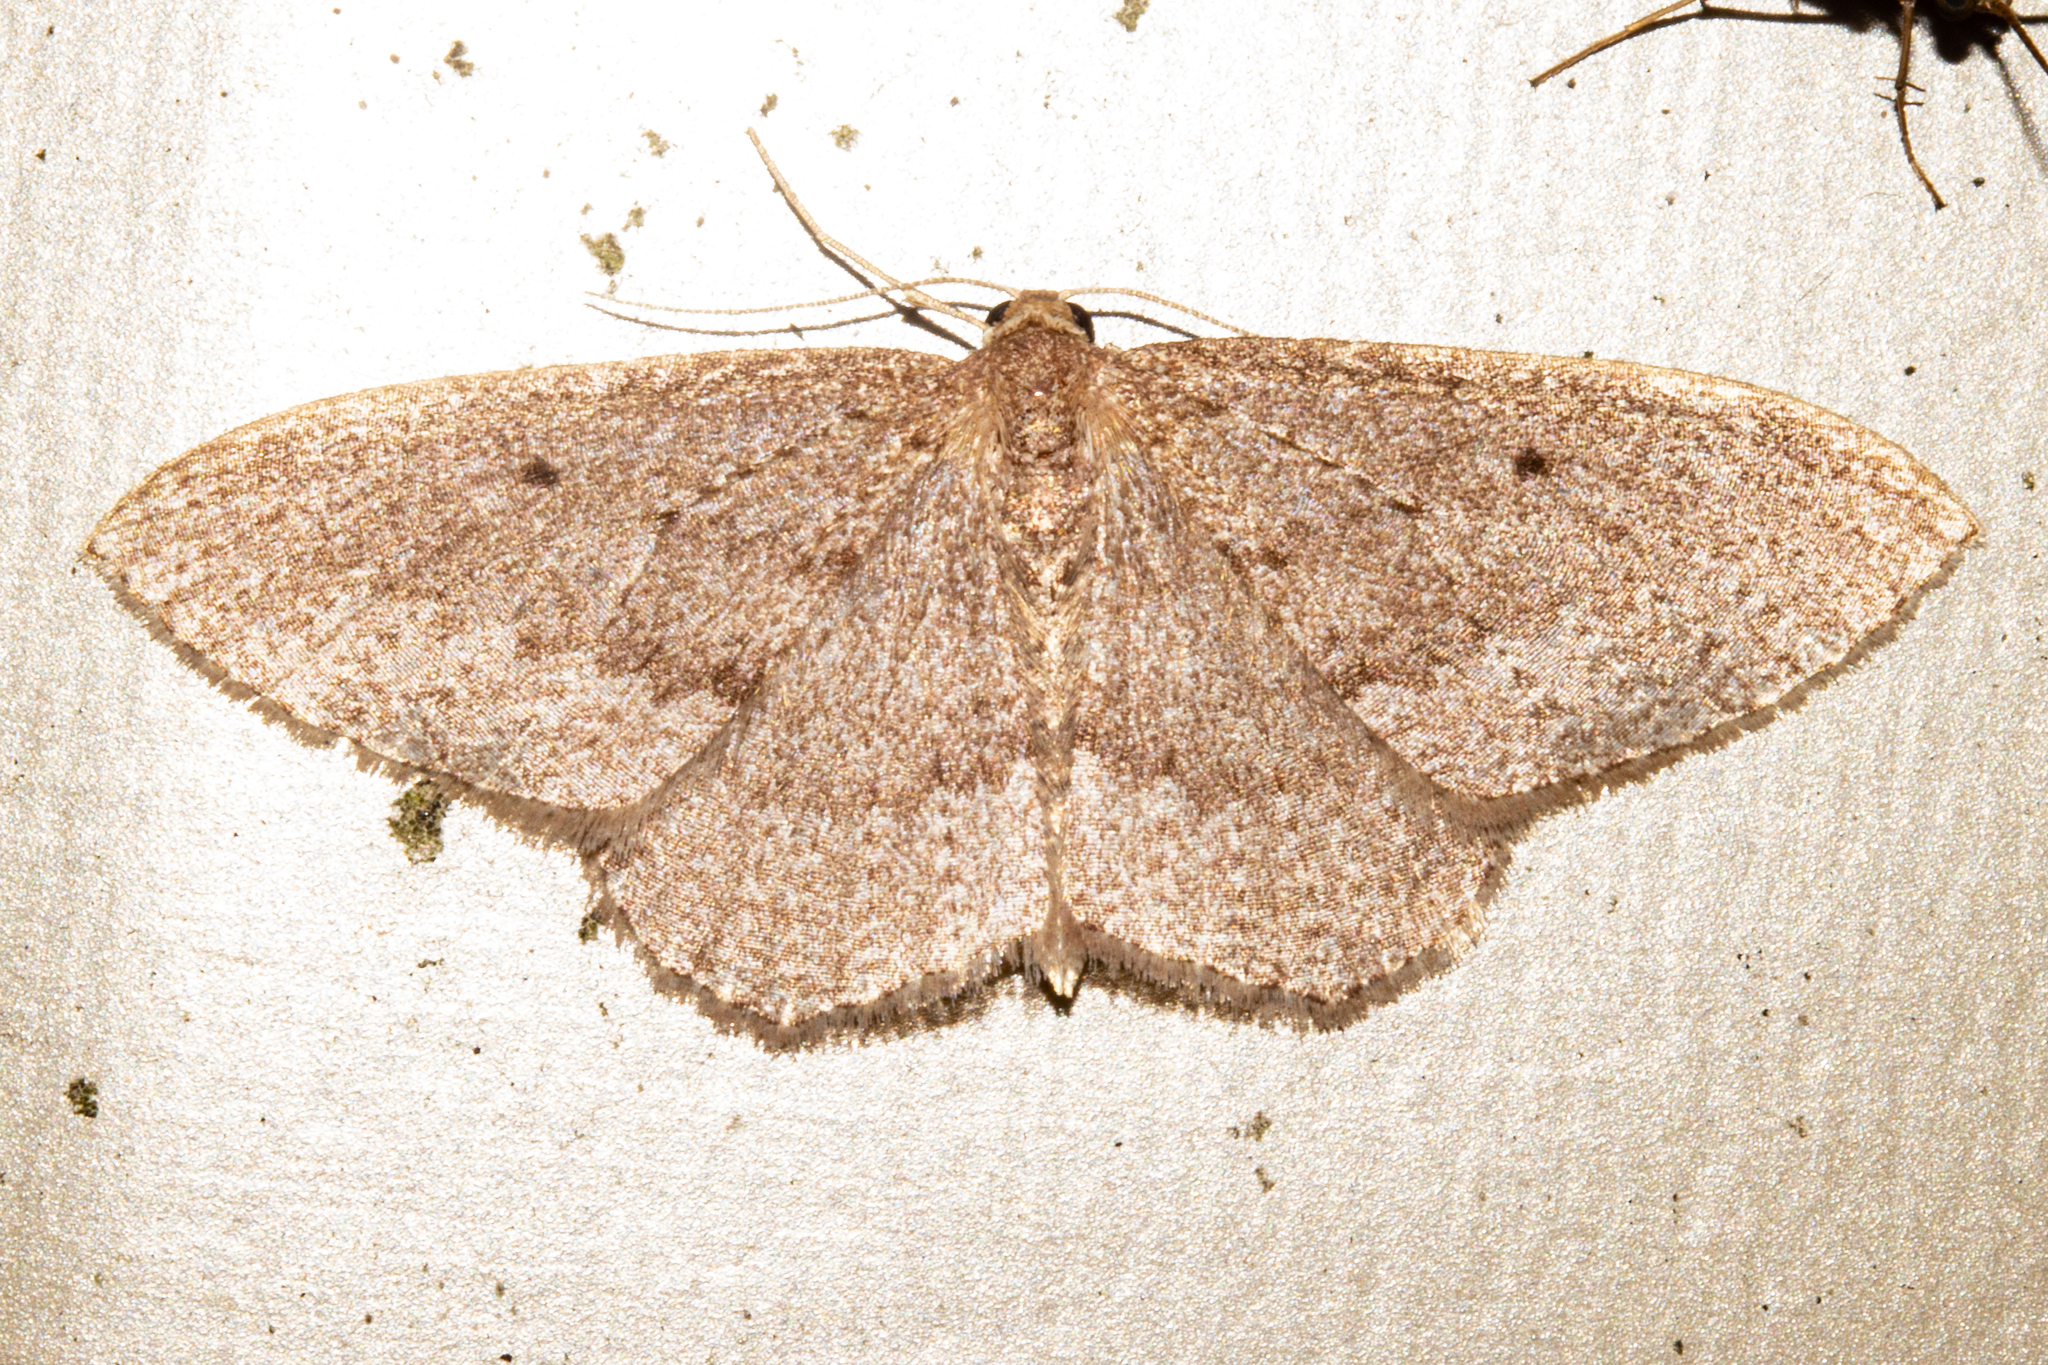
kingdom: Animalia
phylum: Arthropoda
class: Insecta
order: Lepidoptera
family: Geometridae
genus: Poecilasthena
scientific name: Poecilasthena subpurpureata
